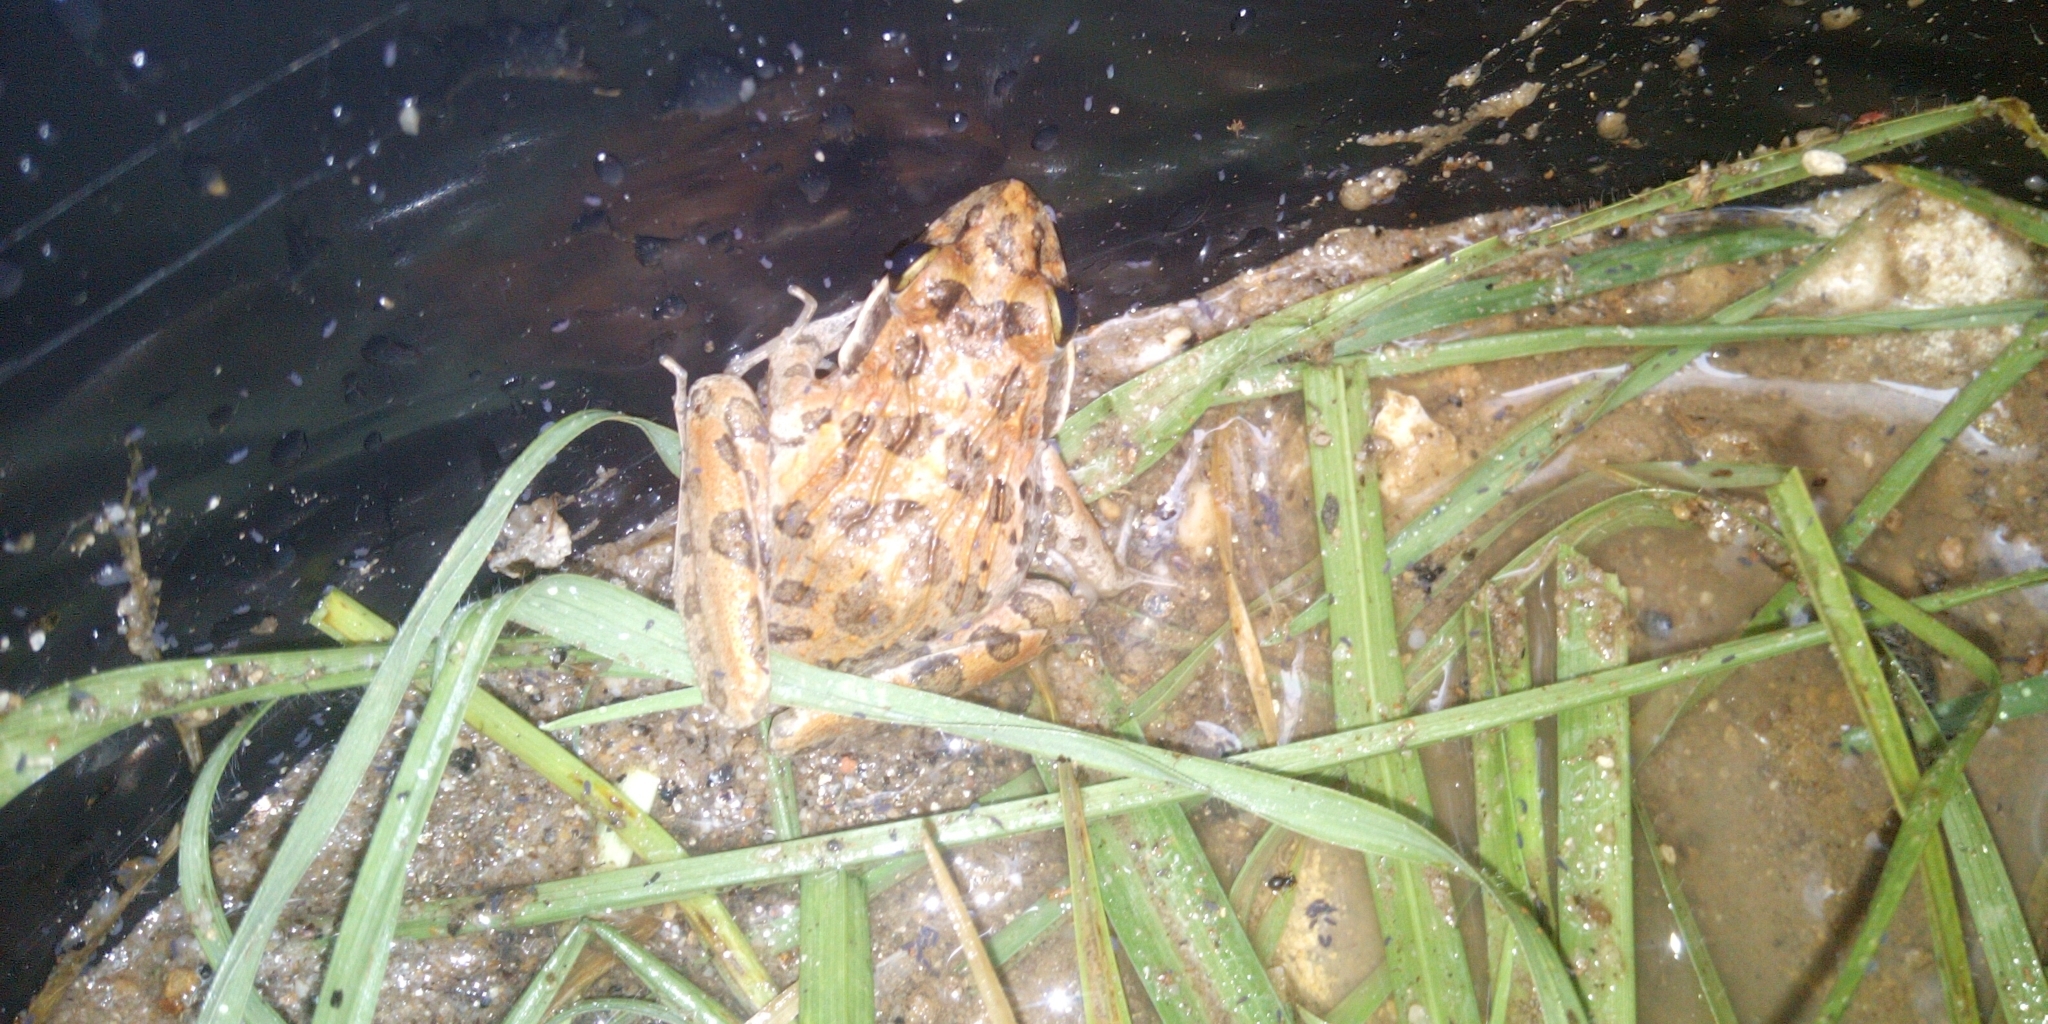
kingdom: Animalia
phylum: Chordata
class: Amphibia
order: Anura
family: Pyxicephalidae
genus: Strongylopus
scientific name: Strongylopus grayii
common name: Gray's stream frog
